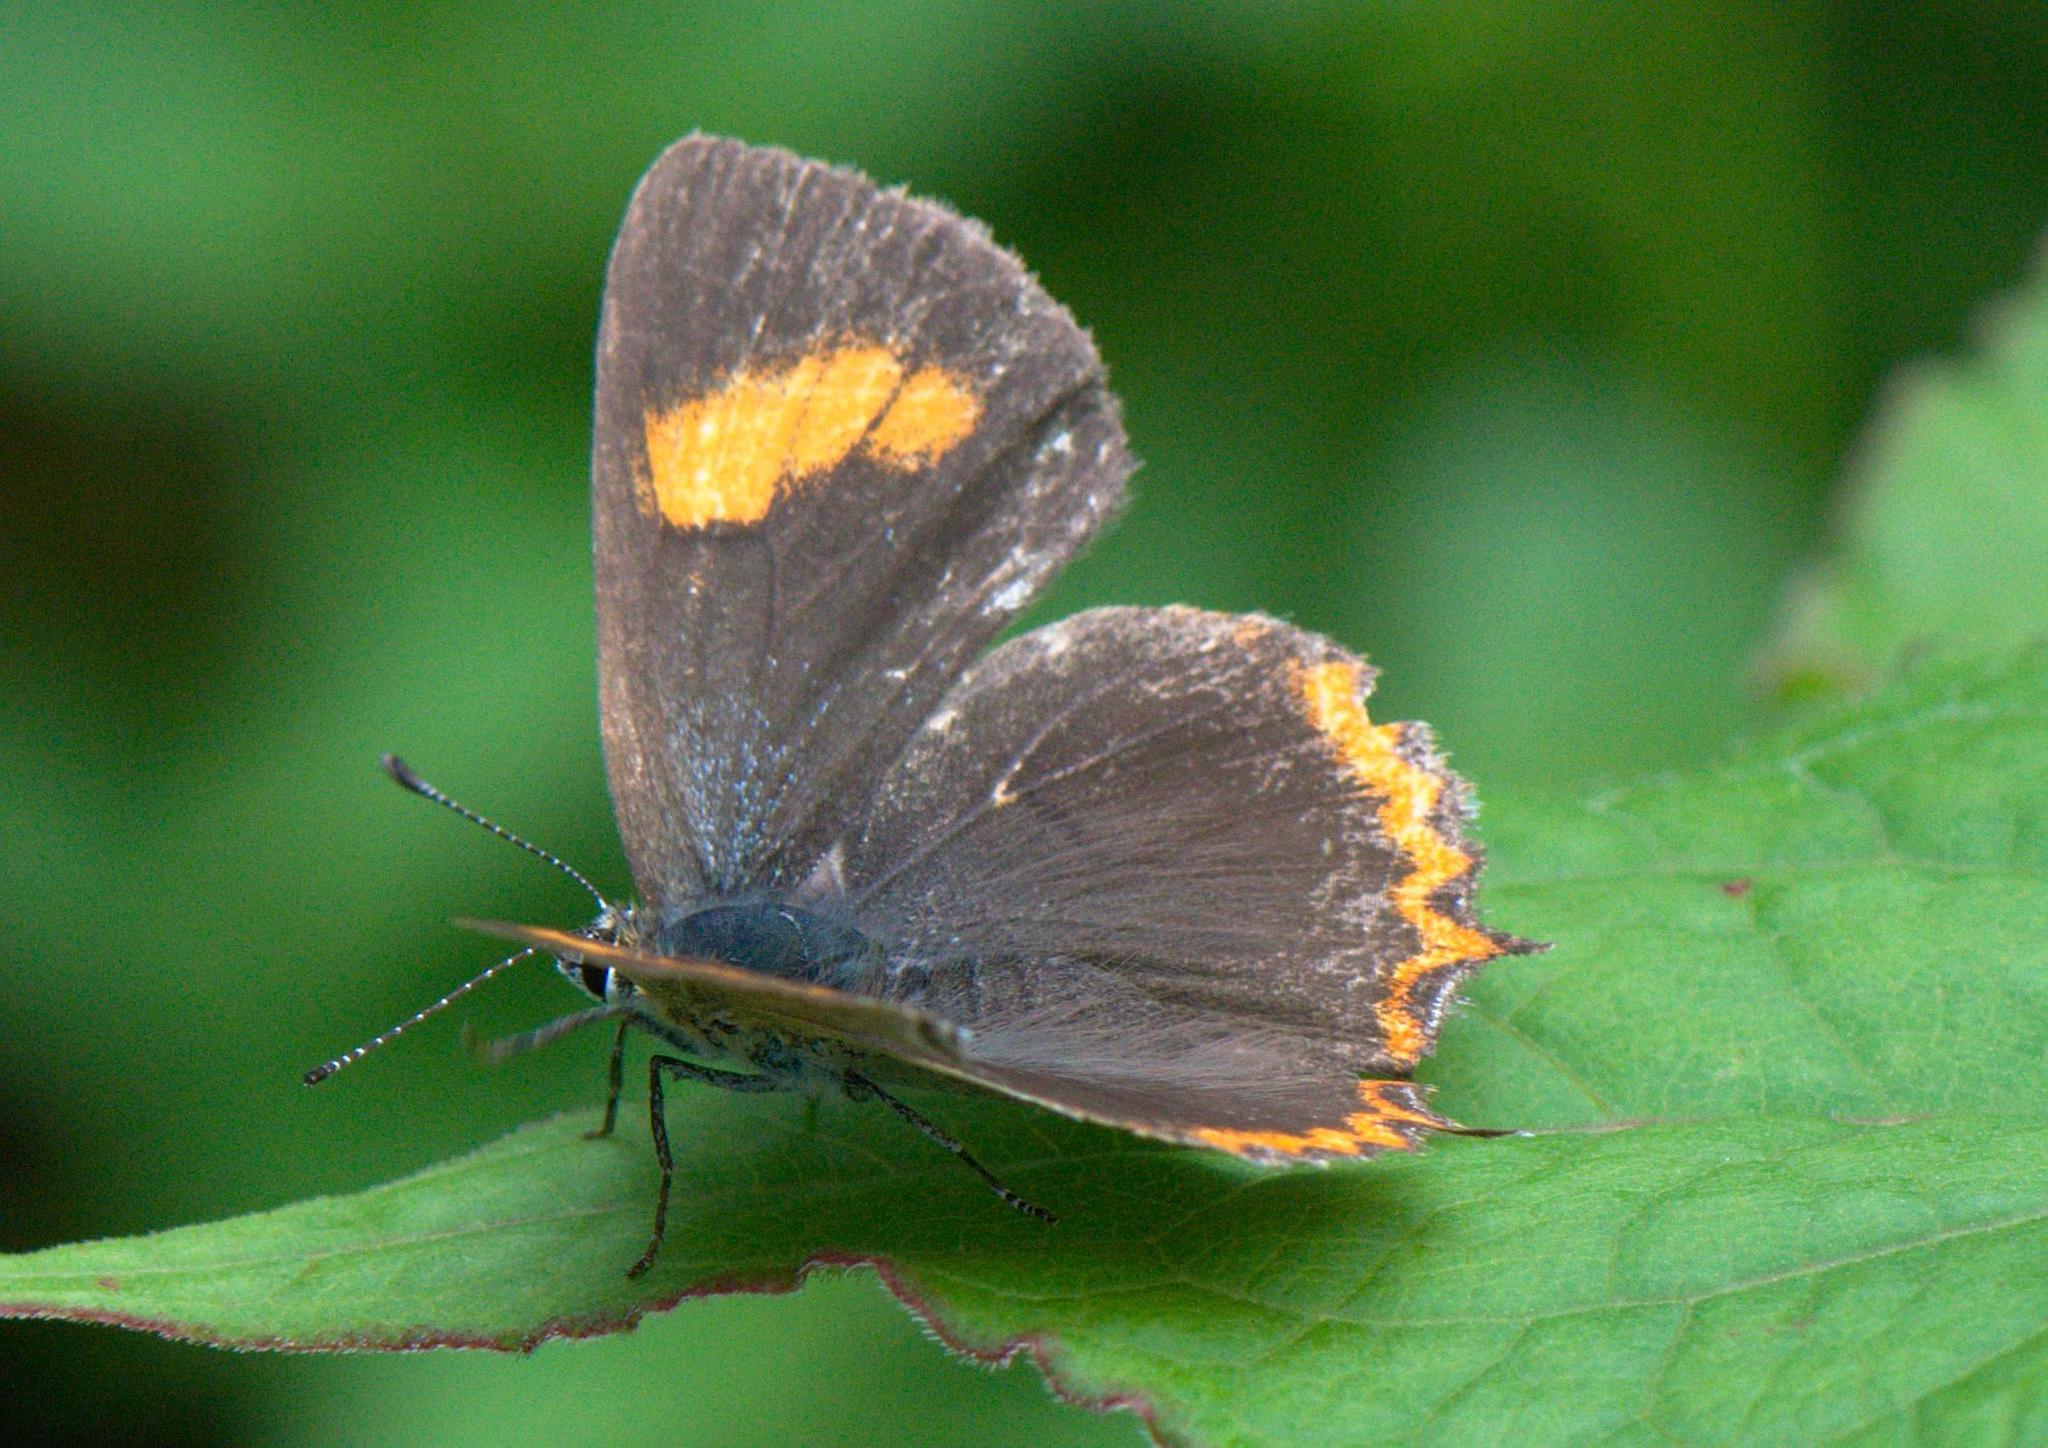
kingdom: Animalia
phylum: Arthropoda
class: Insecta
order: Lepidoptera
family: Lycaenidae
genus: Heliophorus
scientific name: Heliophorus
